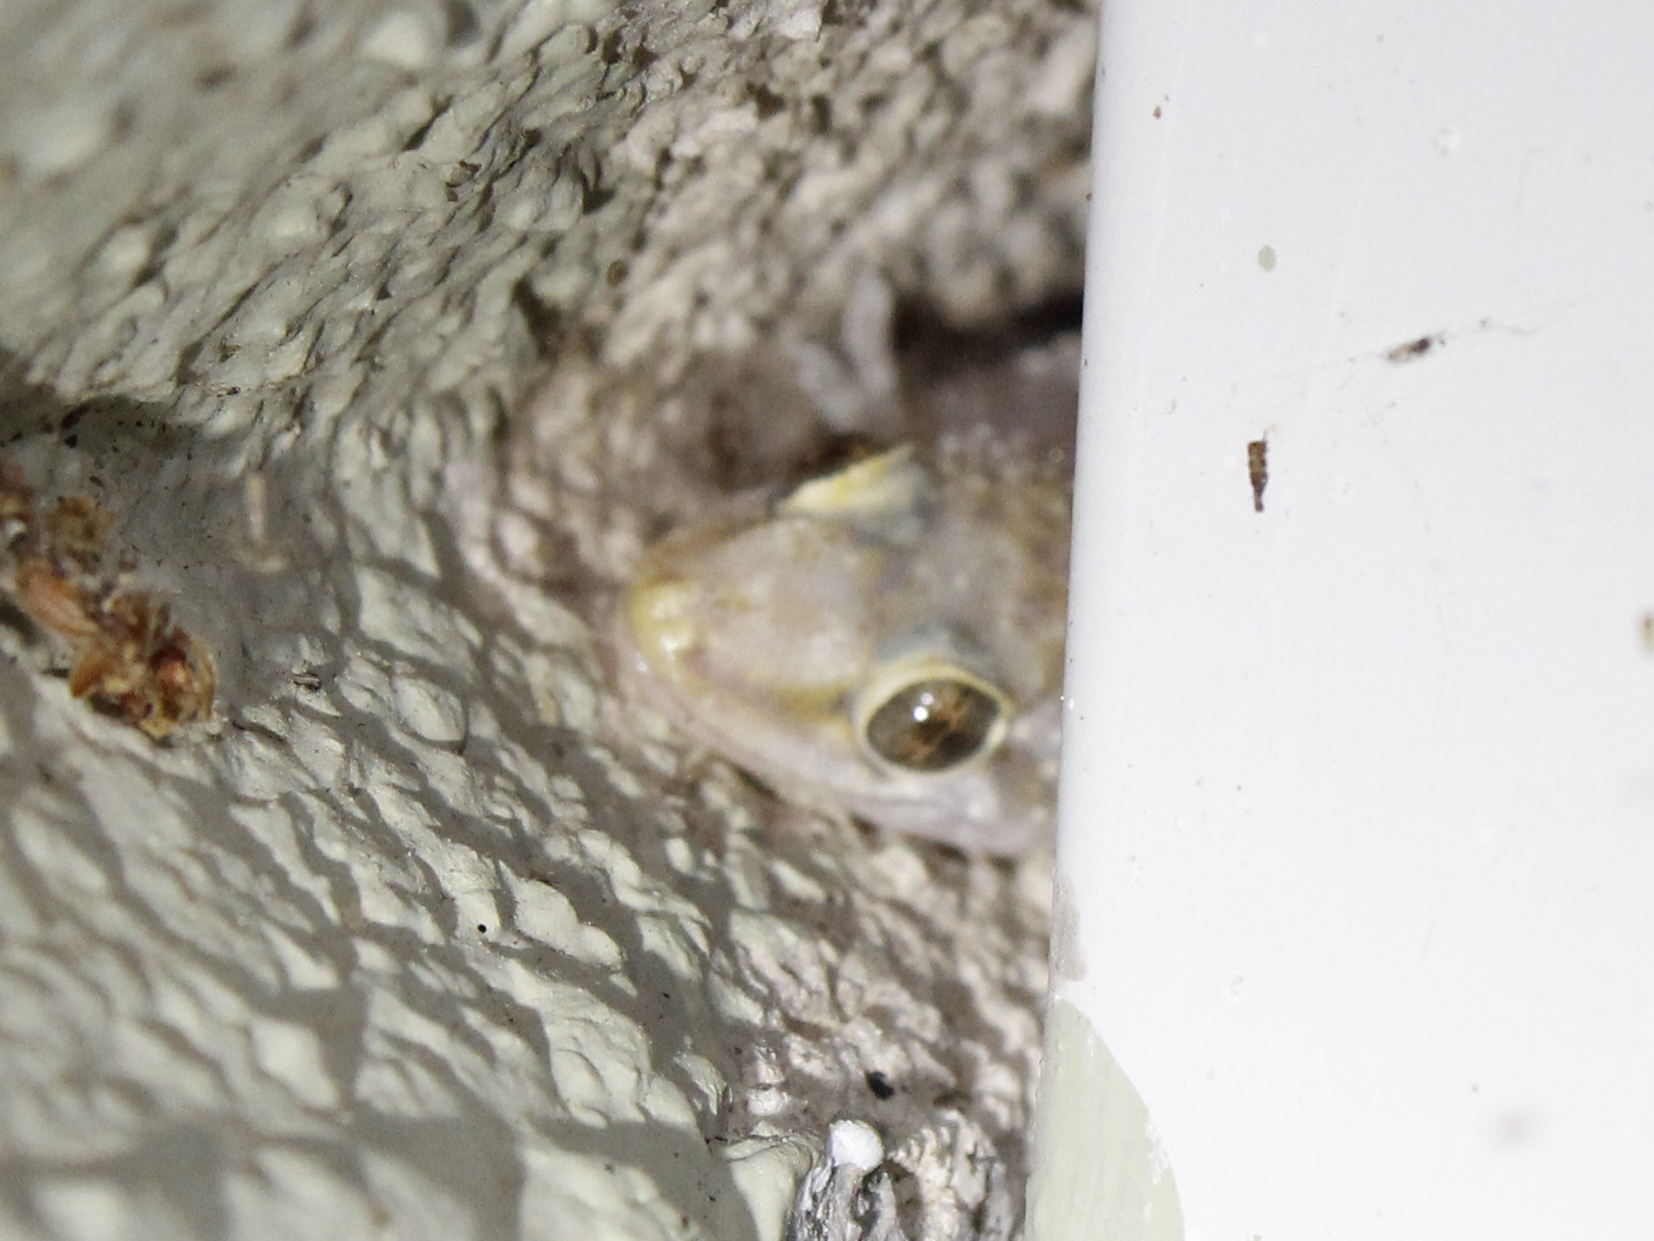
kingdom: Animalia
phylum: Chordata
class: Squamata
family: Gekkonidae
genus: Hemidactylus
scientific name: Hemidactylus turcicus
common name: Turkish gecko
